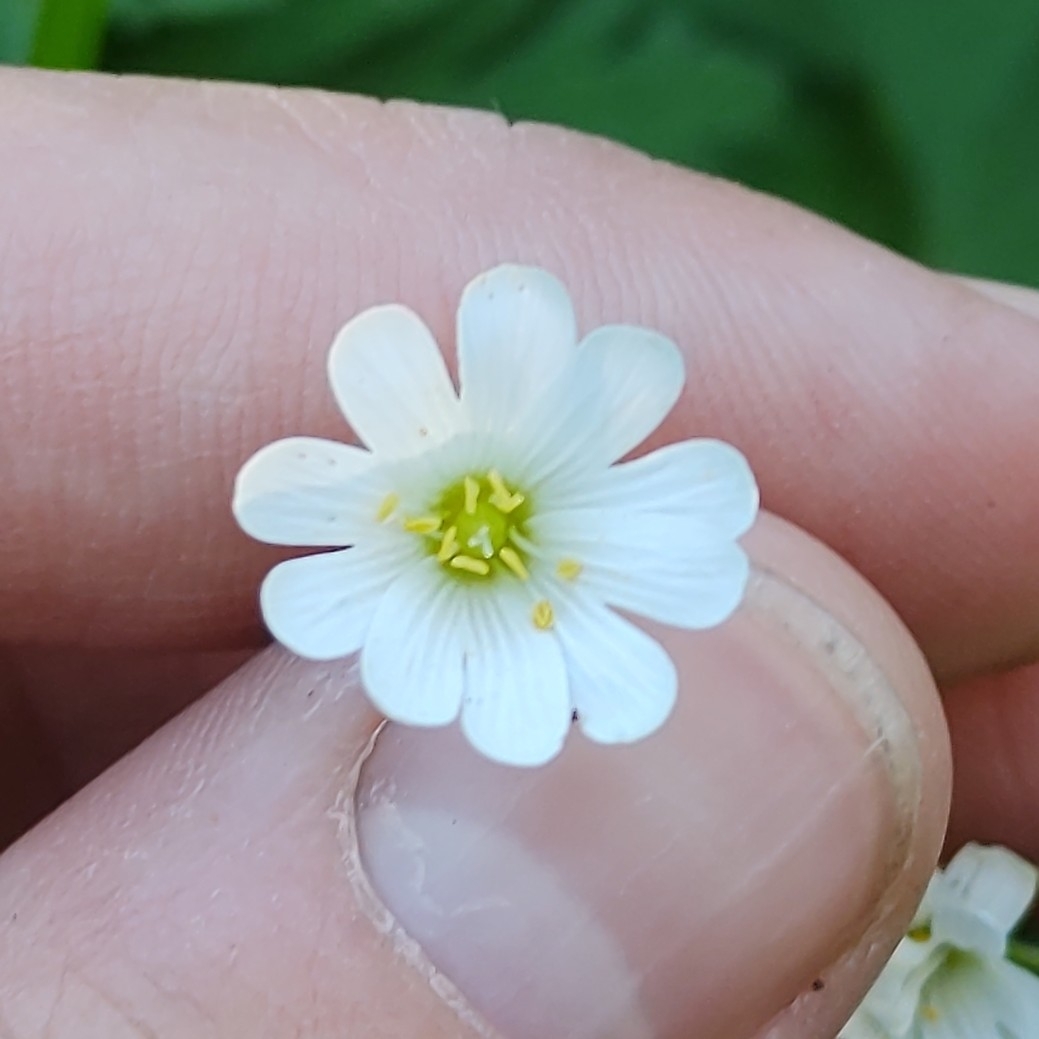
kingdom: Plantae
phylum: Tracheophyta
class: Magnoliopsida
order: Caryophyllales
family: Caryophyllaceae
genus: Rabelera
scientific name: Rabelera holostea
